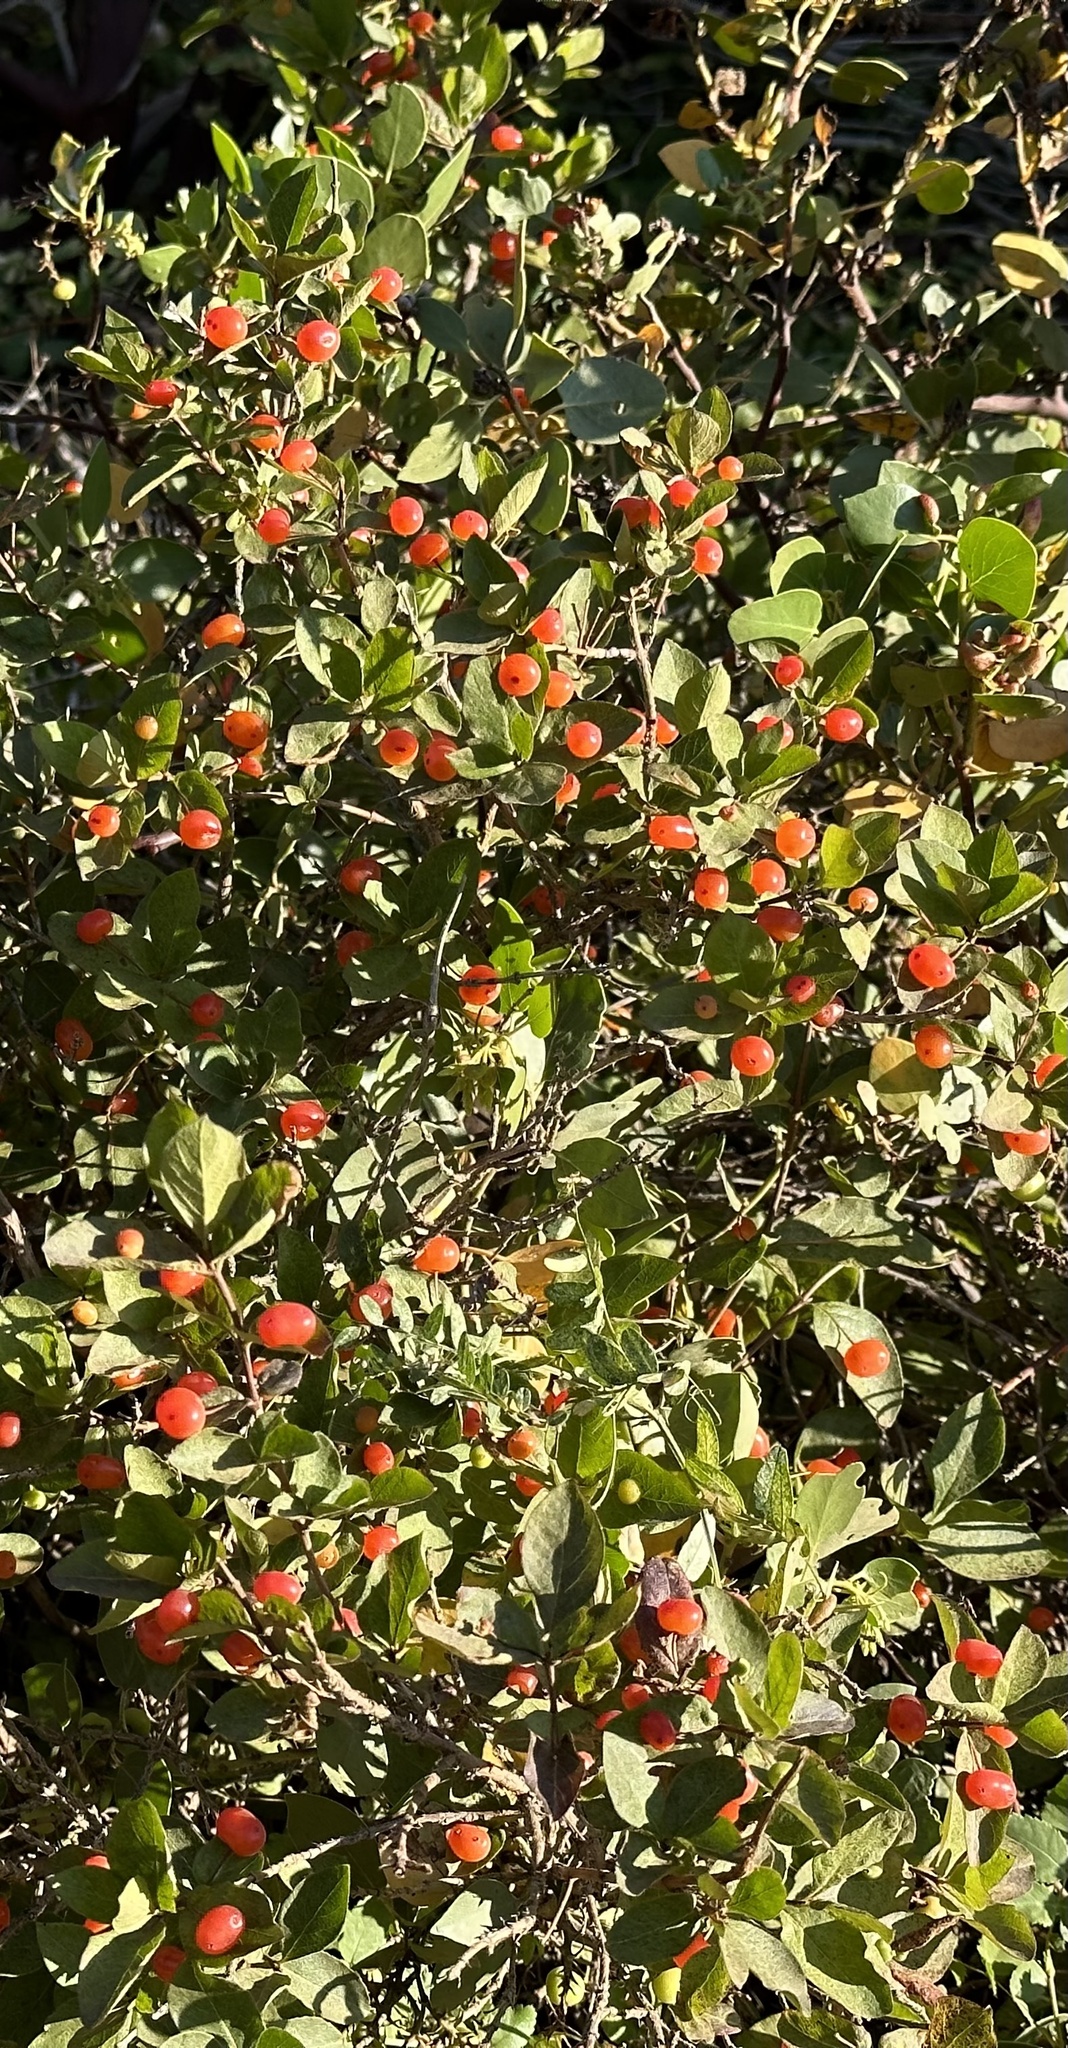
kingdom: Plantae
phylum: Tracheophyta
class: Magnoliopsida
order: Dipsacales
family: Caprifoliaceae
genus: Lonicera
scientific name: Lonicera conjugialis
